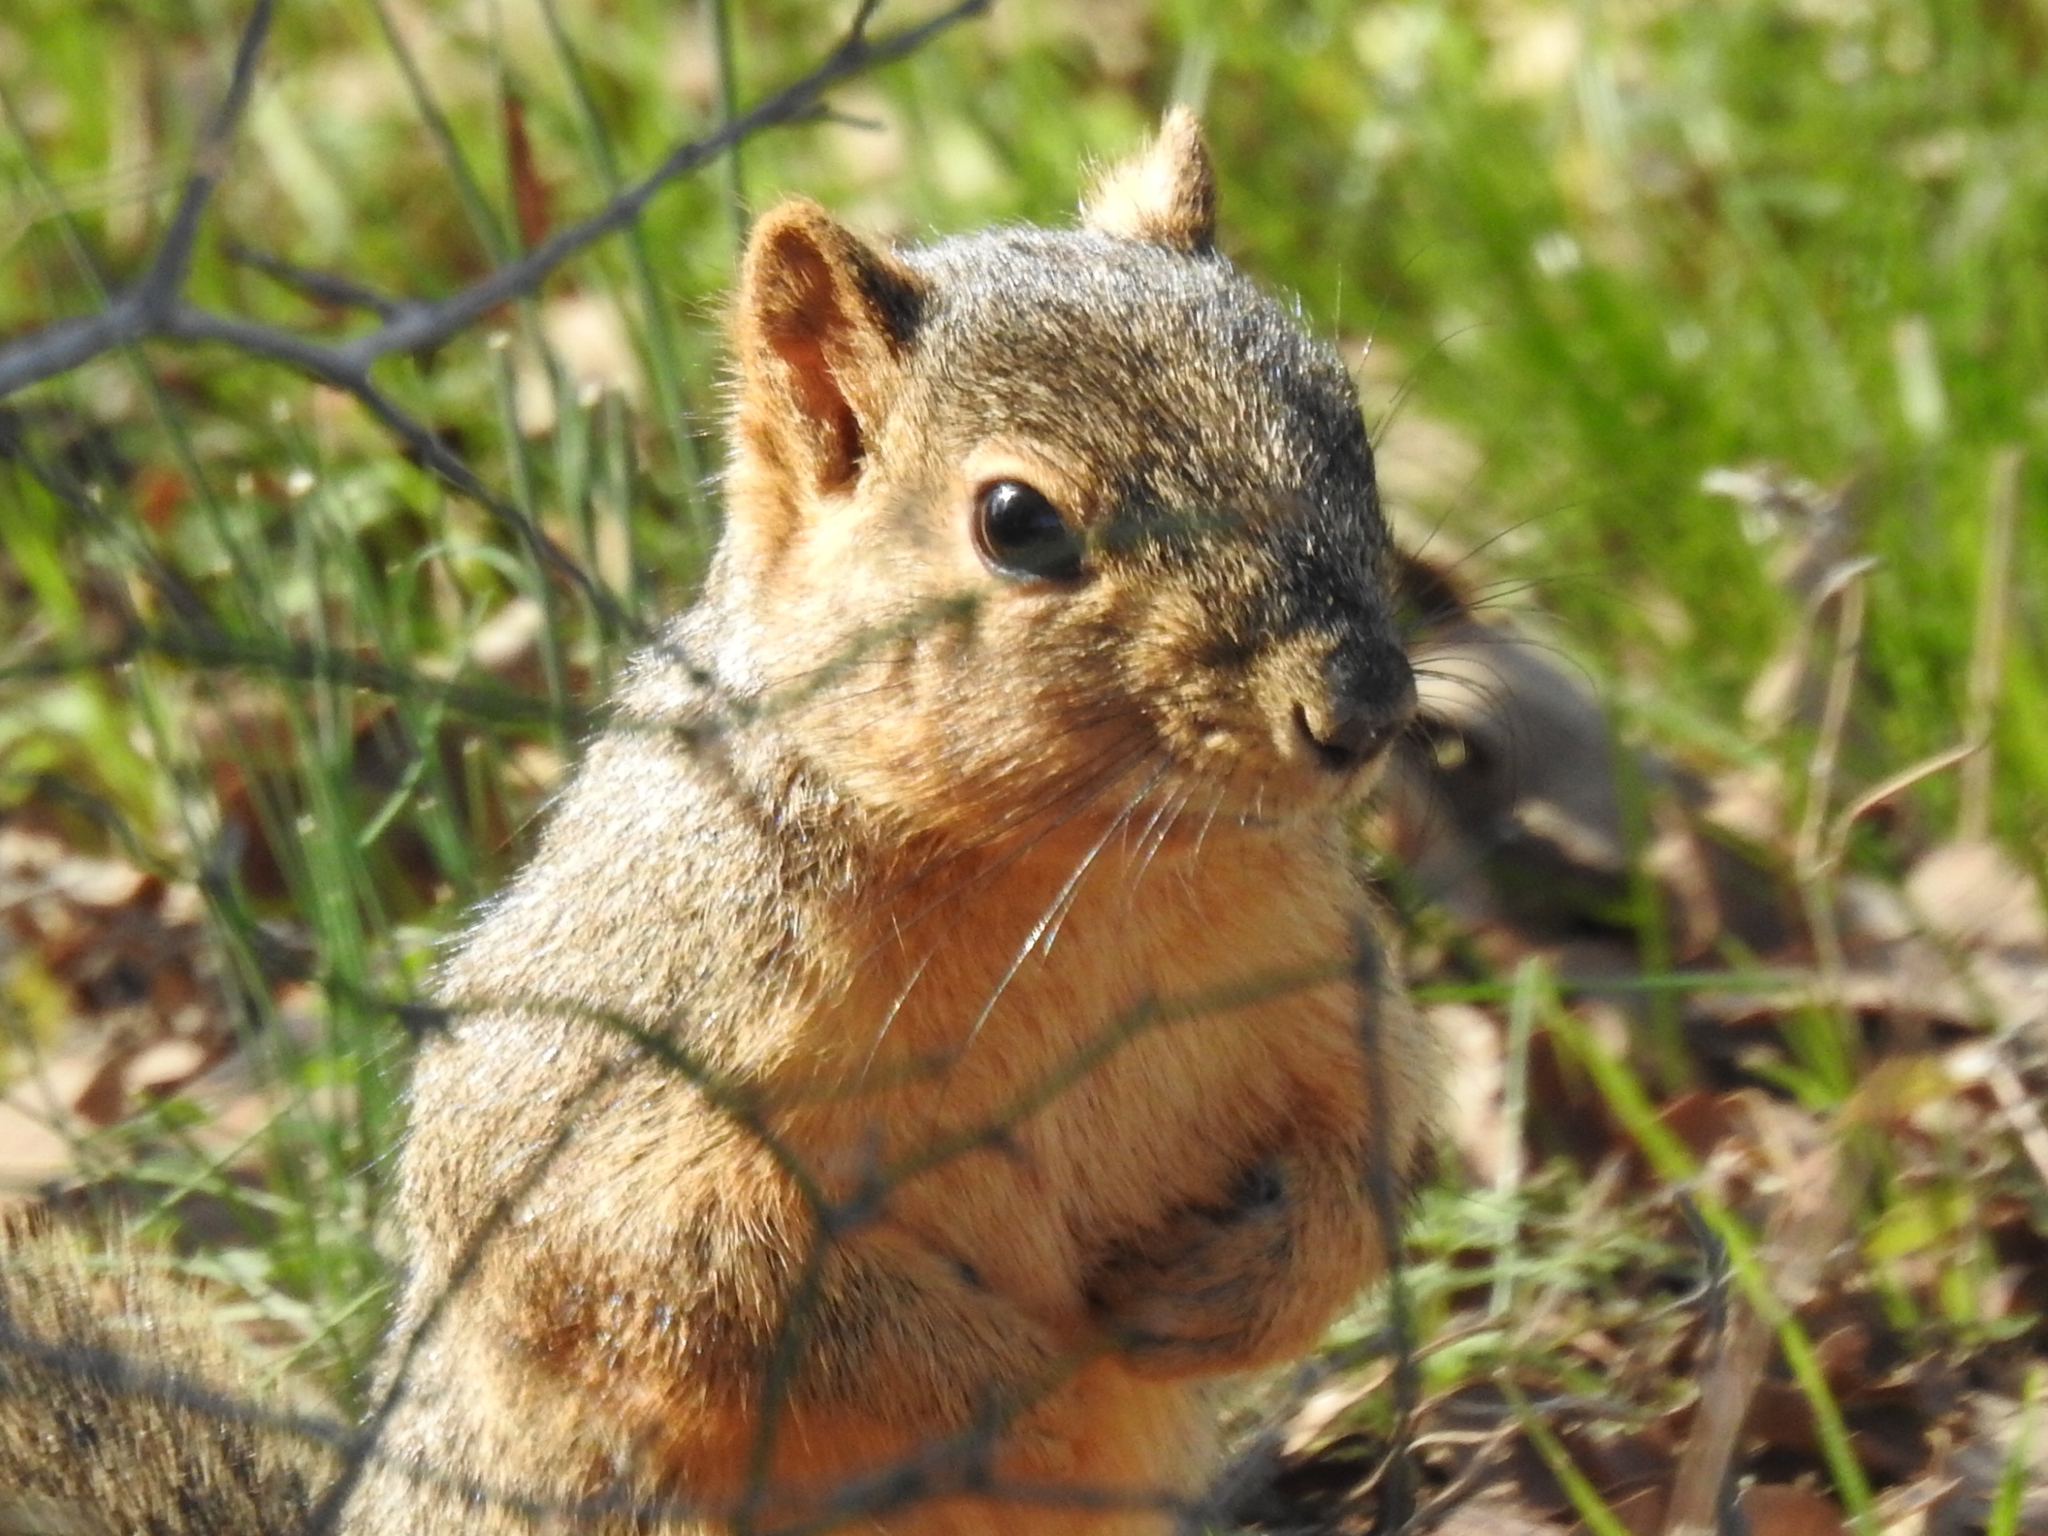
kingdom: Animalia
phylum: Chordata
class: Mammalia
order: Rodentia
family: Sciuridae
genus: Sciurus
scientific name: Sciurus niger
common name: Fox squirrel
